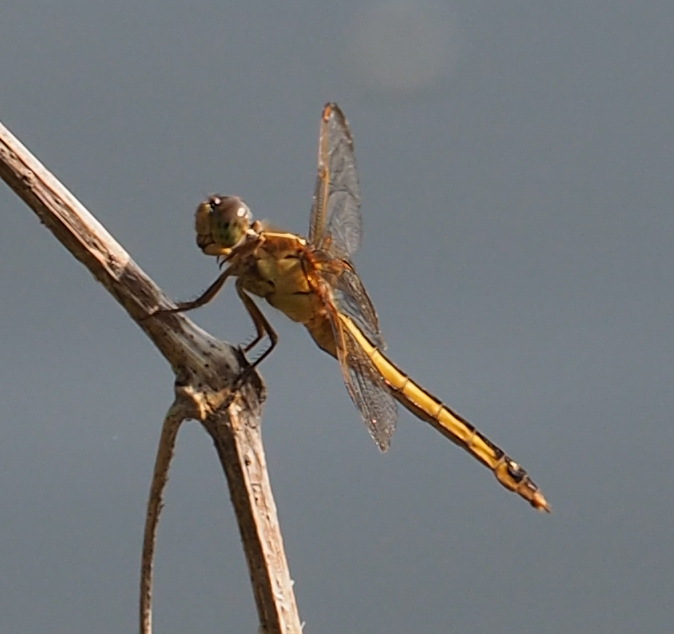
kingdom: Animalia
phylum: Arthropoda
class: Insecta
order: Odonata
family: Libellulidae
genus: Libellula
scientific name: Libellula needhami
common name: Needham's skimmer
